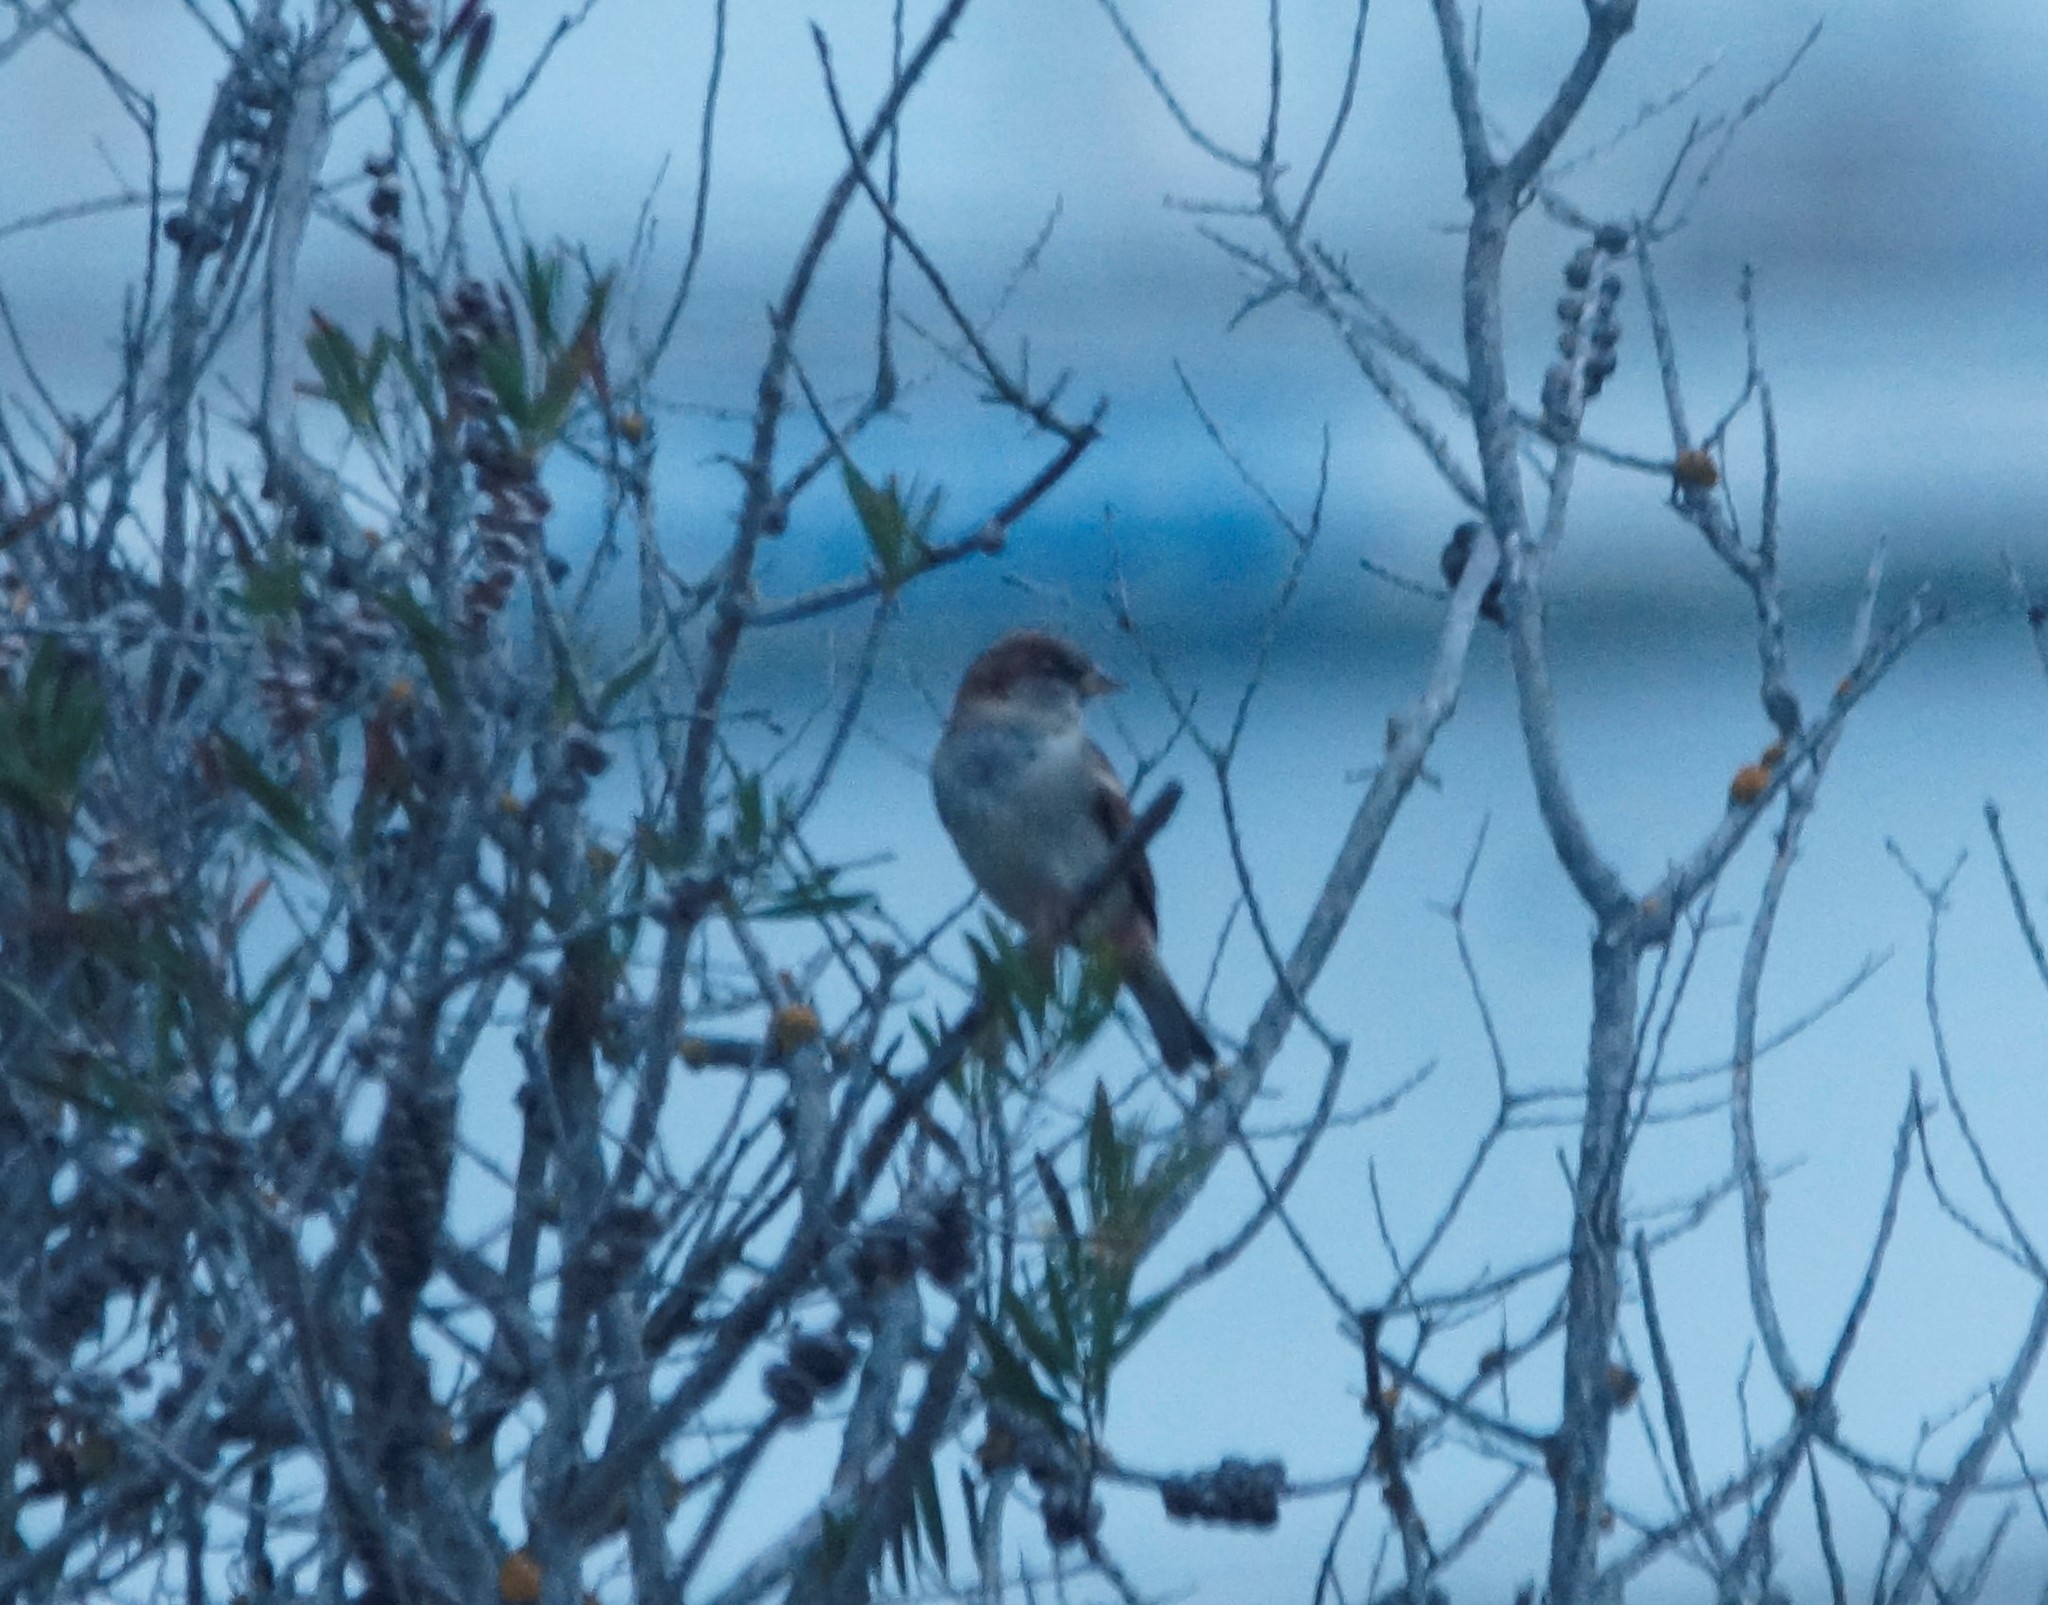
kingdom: Animalia
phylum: Chordata
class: Aves
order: Passeriformes
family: Passeridae
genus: Passer
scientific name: Passer domesticus
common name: House sparrow
